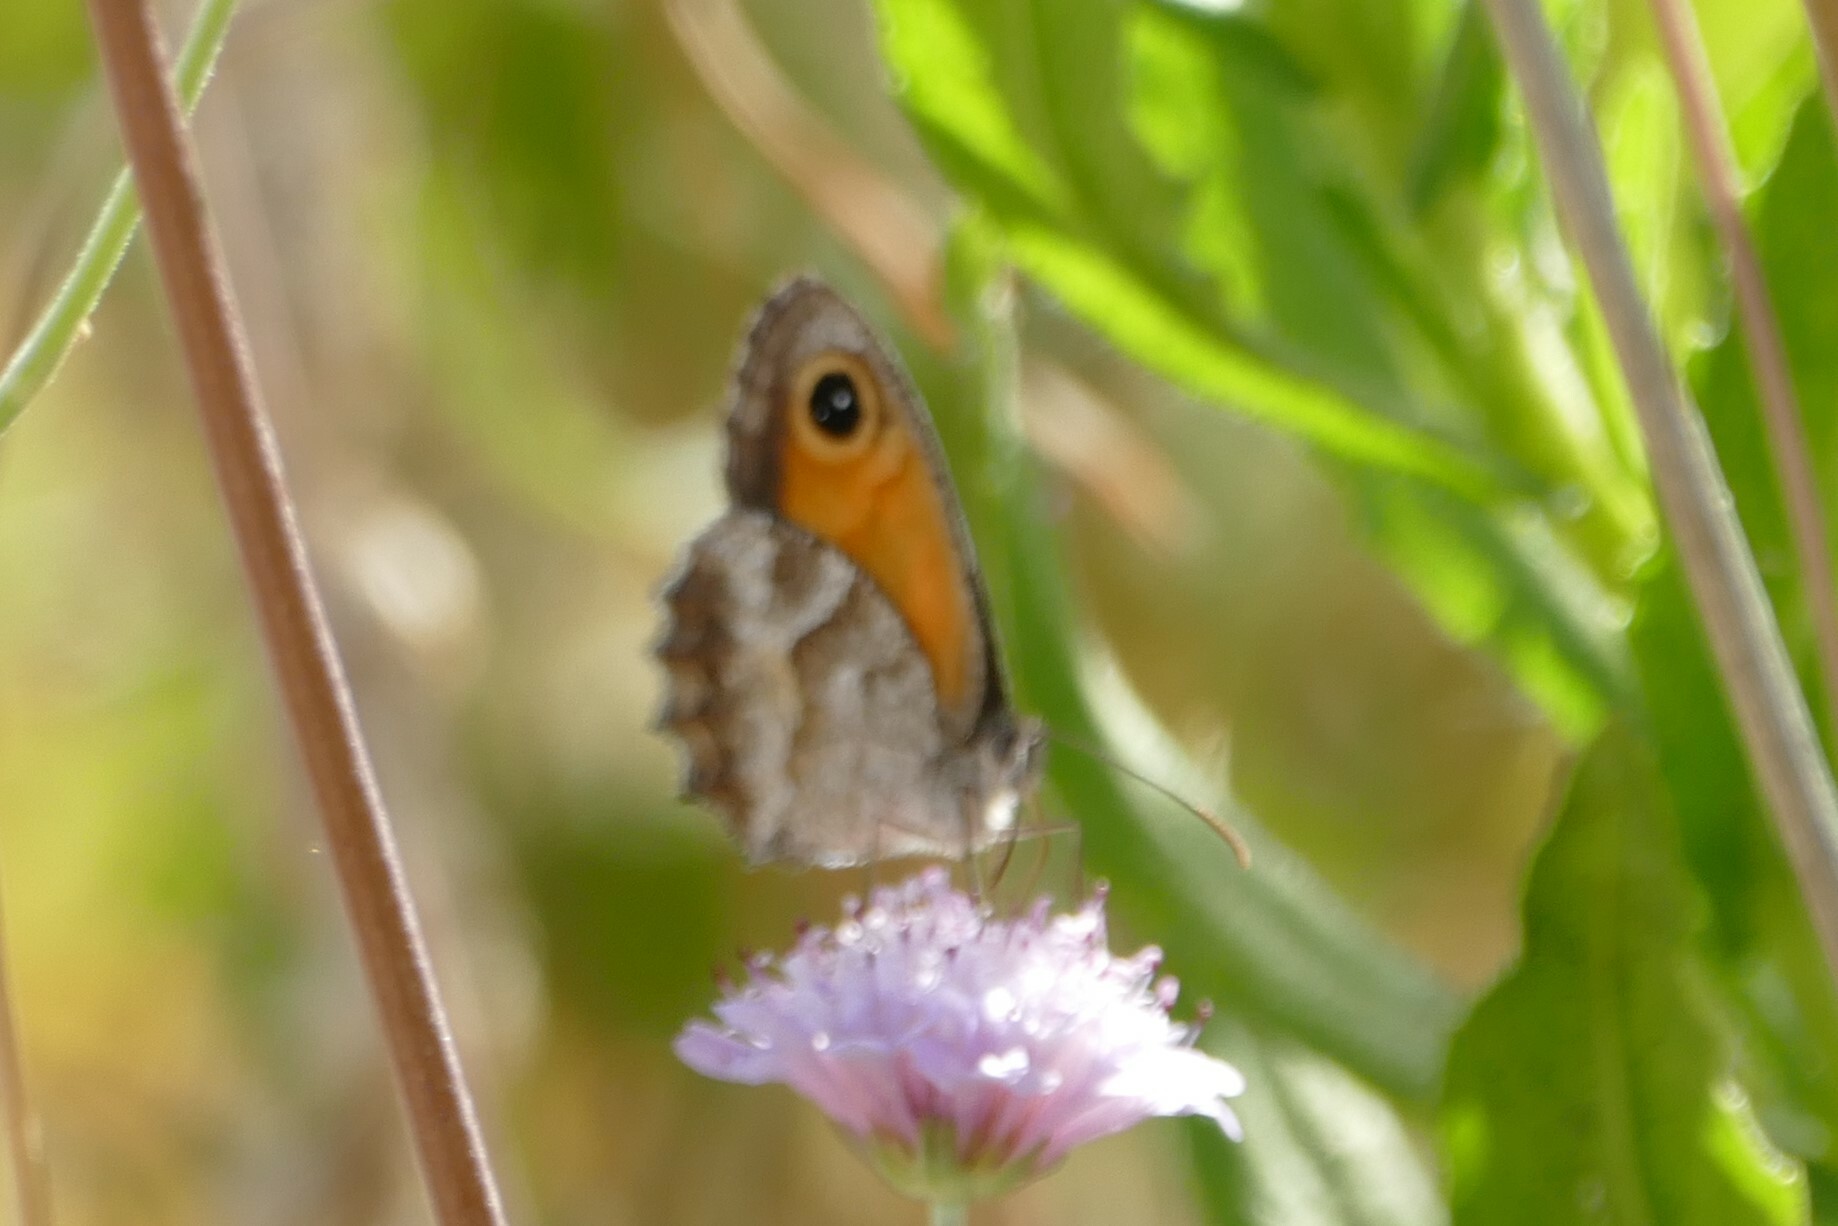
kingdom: Animalia
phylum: Arthropoda
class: Insecta
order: Lepidoptera
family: Nymphalidae
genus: Pyronia
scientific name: Pyronia cecilia
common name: Southern gatekeeper
